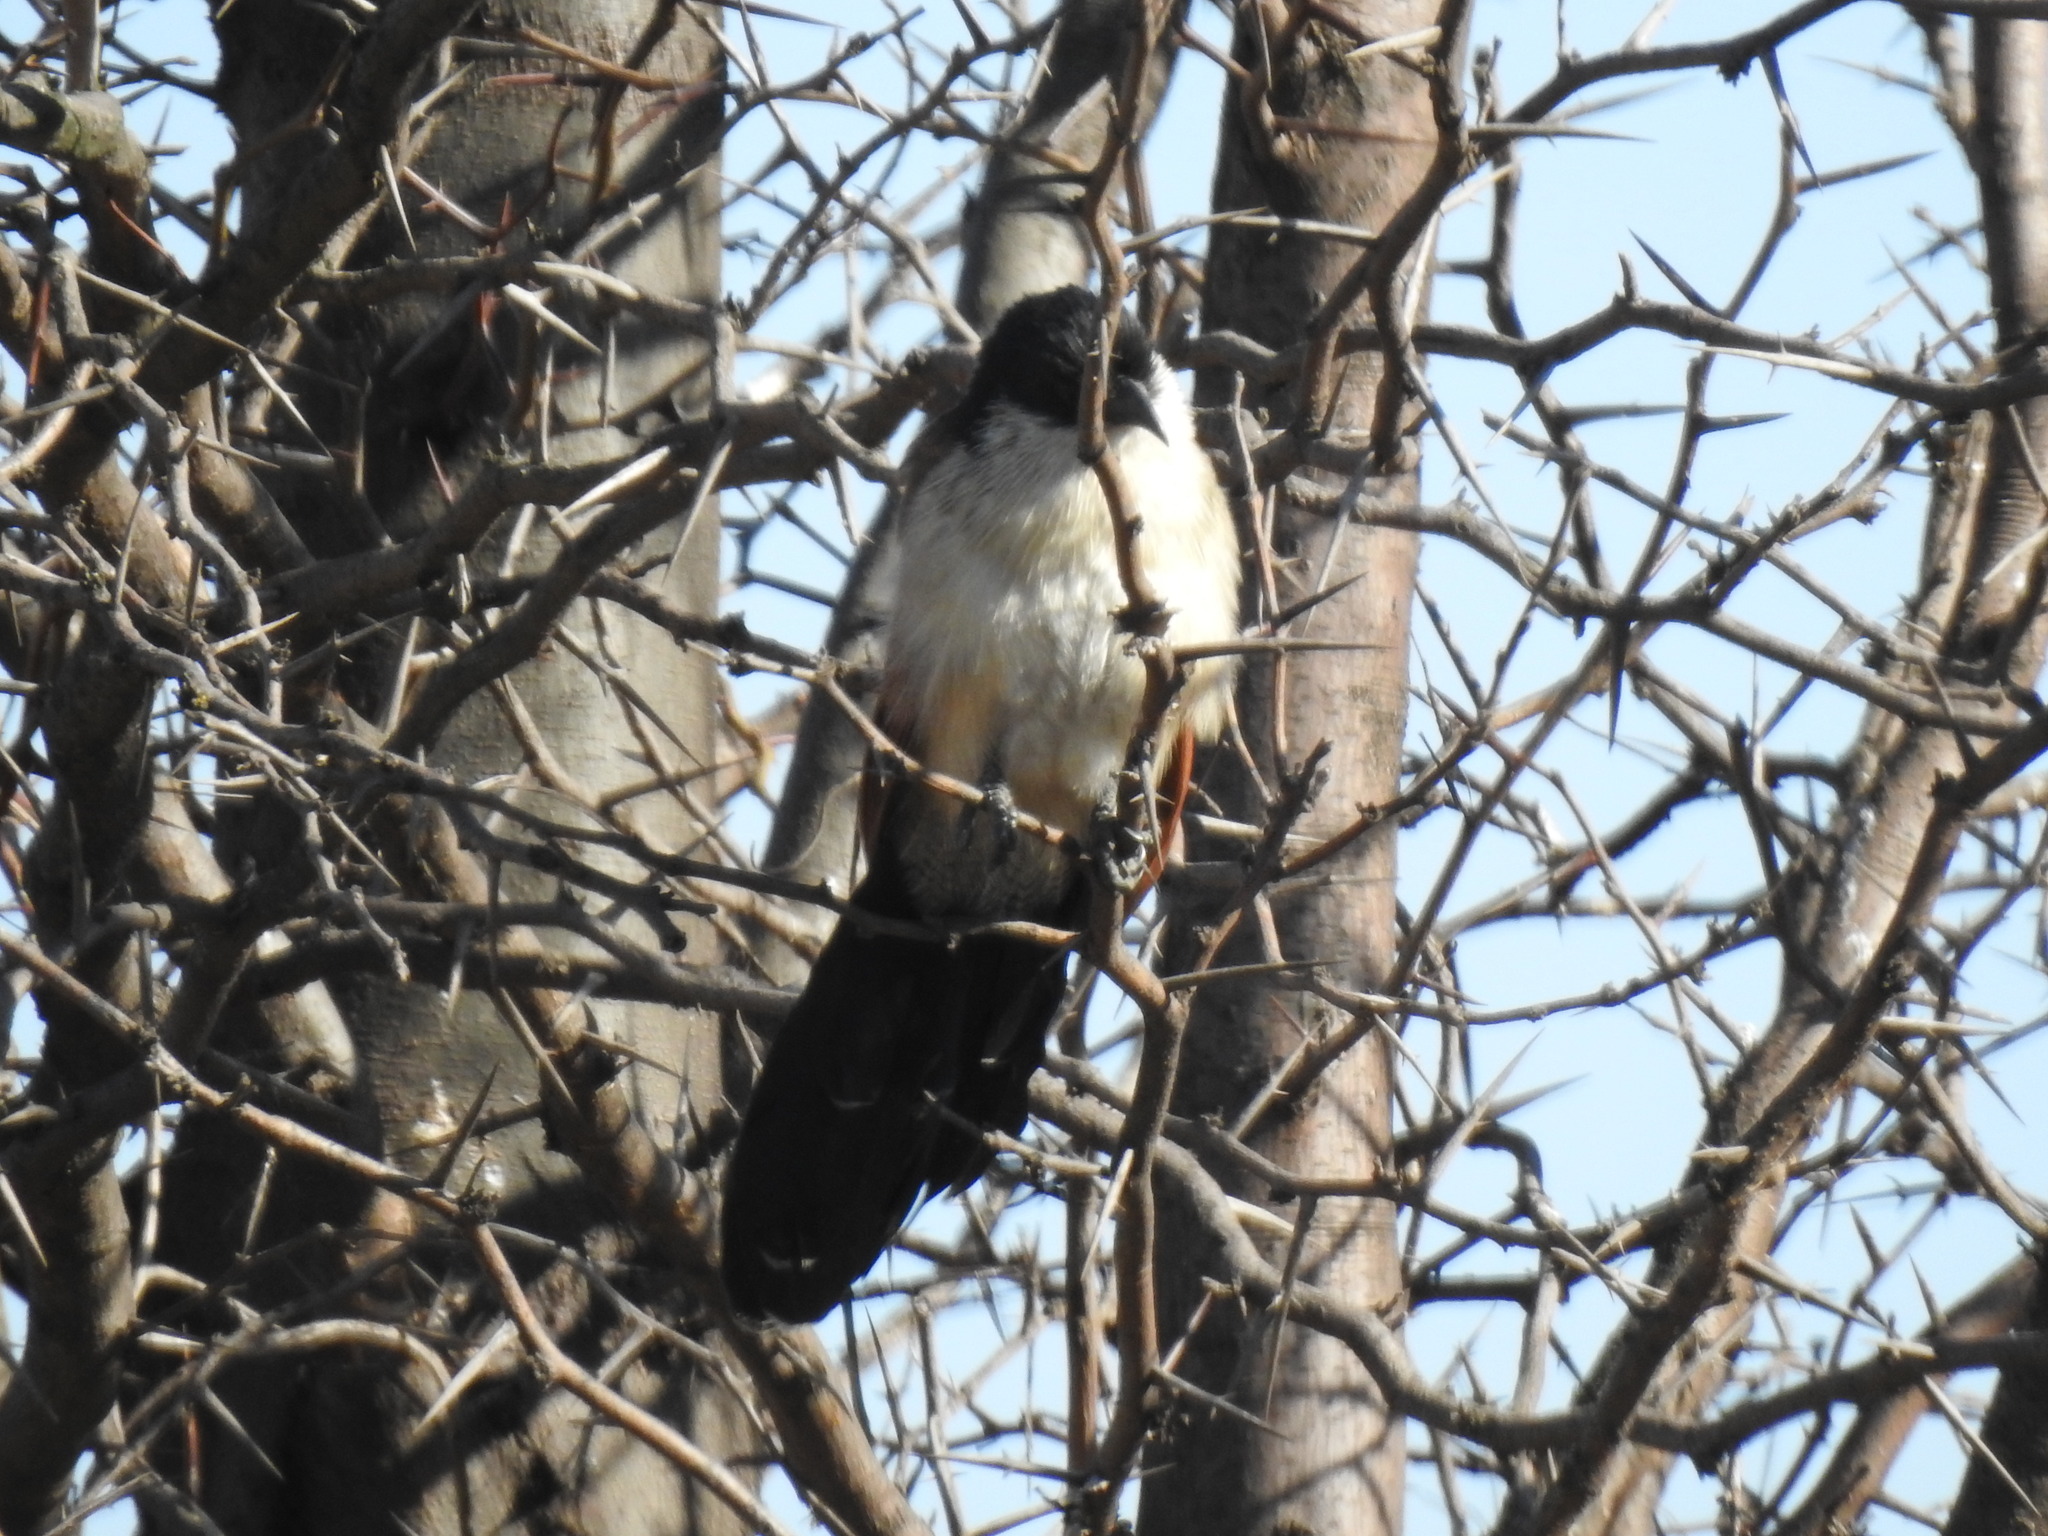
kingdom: Animalia
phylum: Chordata
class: Aves
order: Cuculiformes
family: Cuculidae
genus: Centropus
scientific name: Centropus superciliosus
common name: White-browed coucal
